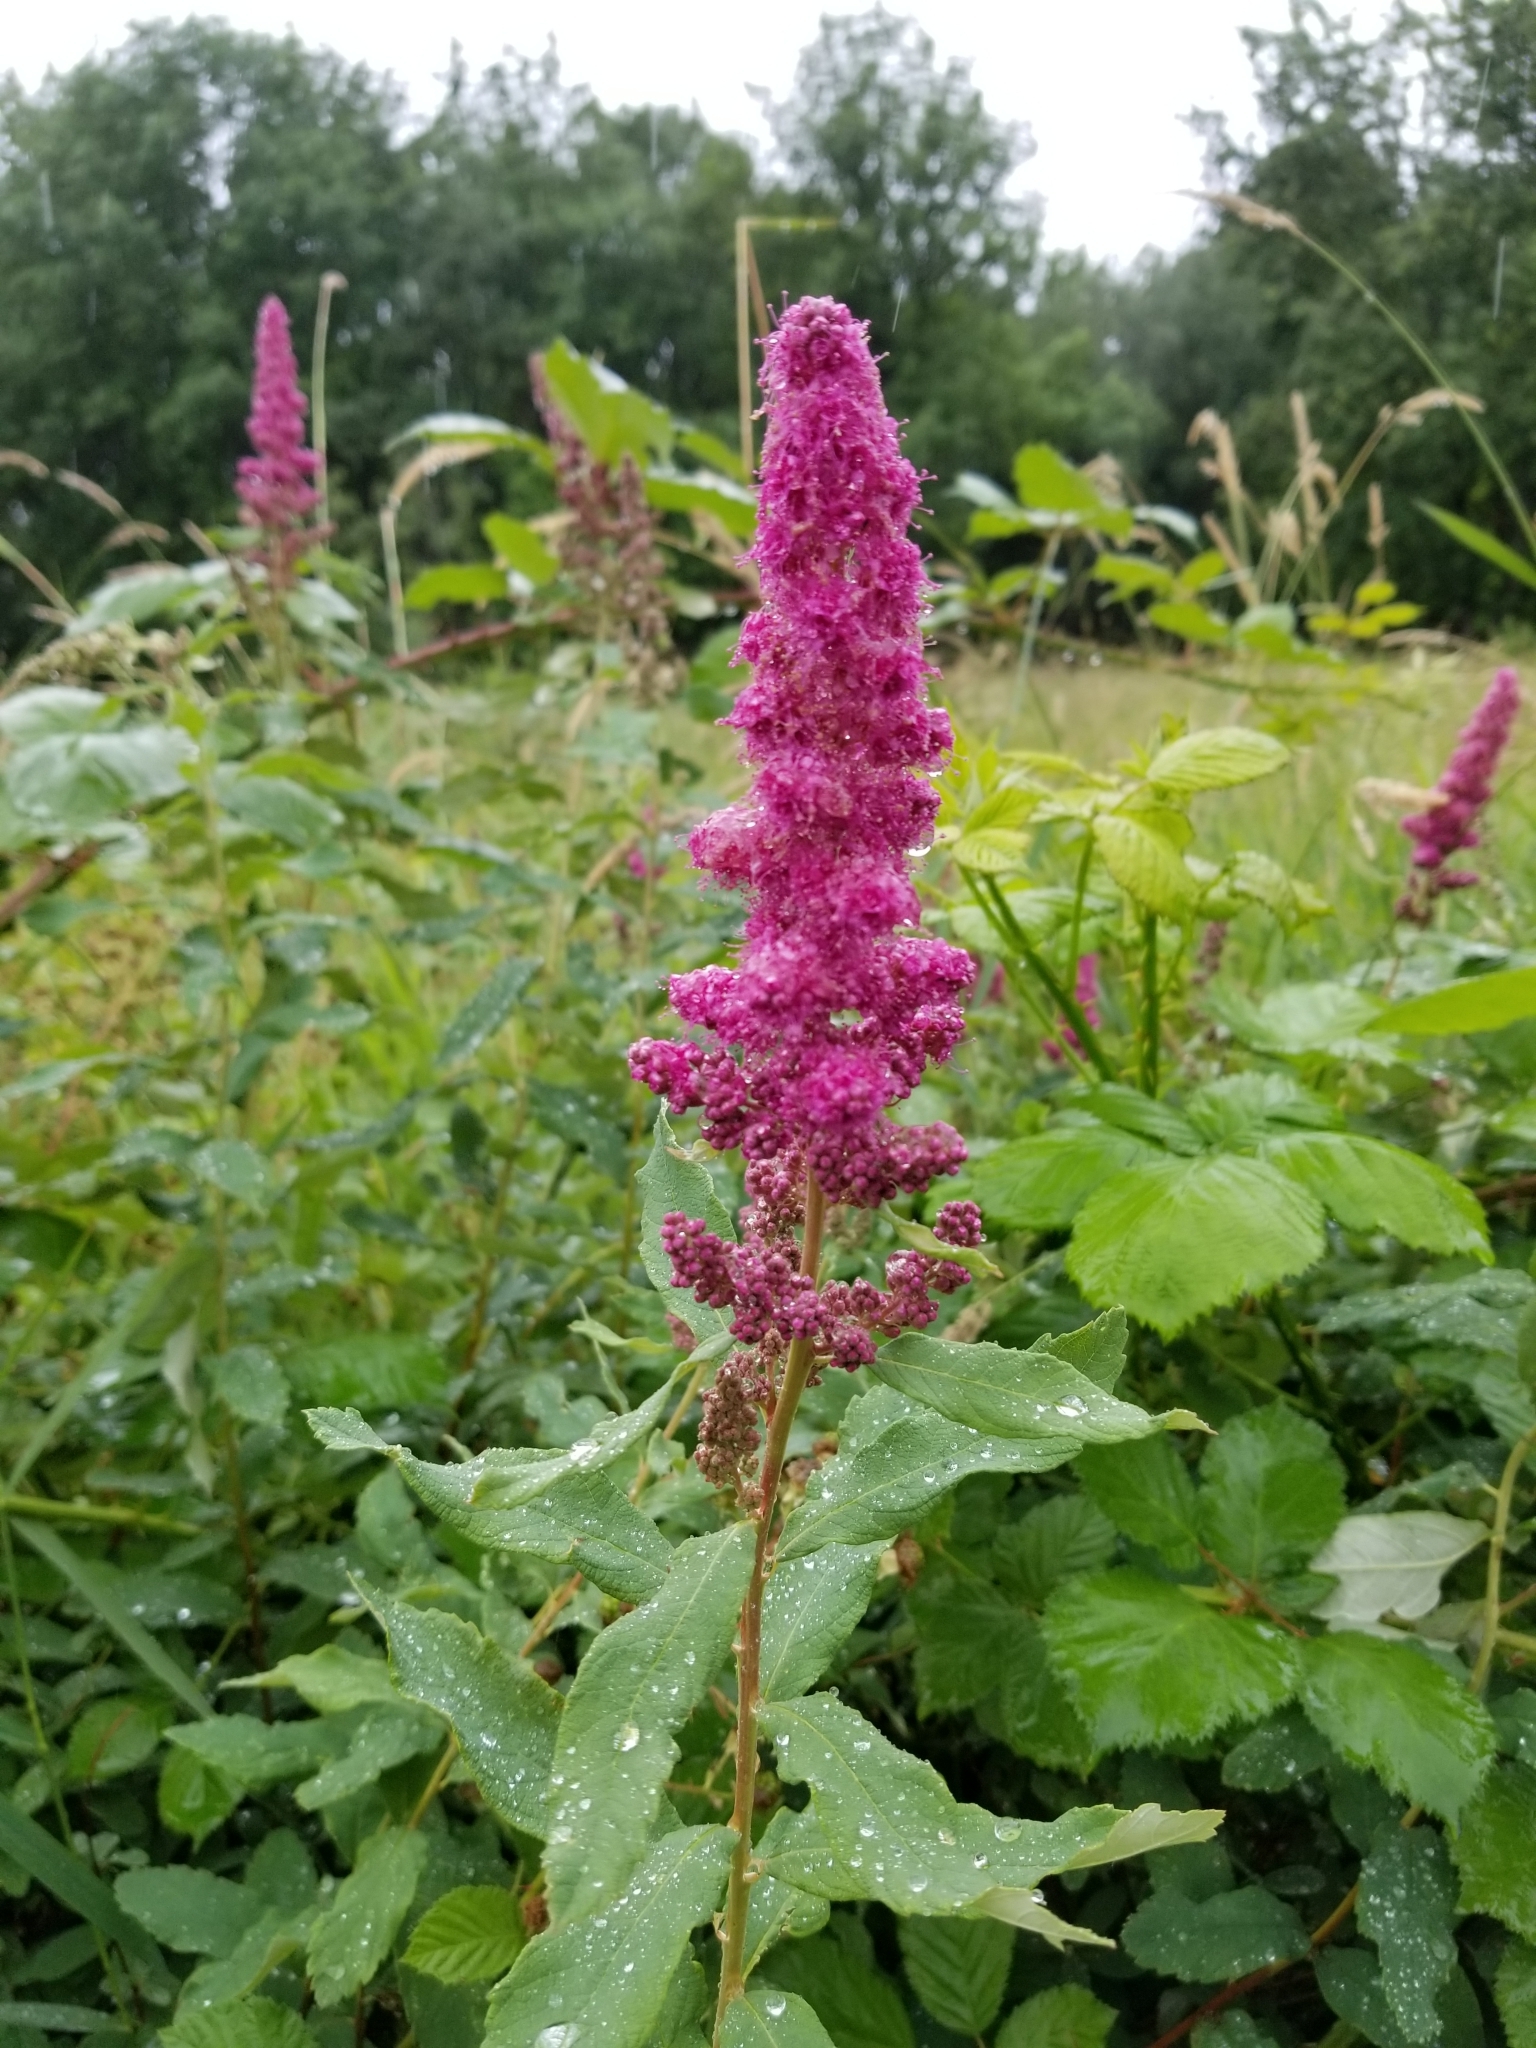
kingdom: Plantae
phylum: Tracheophyta
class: Magnoliopsida
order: Rosales
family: Rosaceae
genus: Spiraea
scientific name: Spiraea douglasii
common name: Steeplebush
